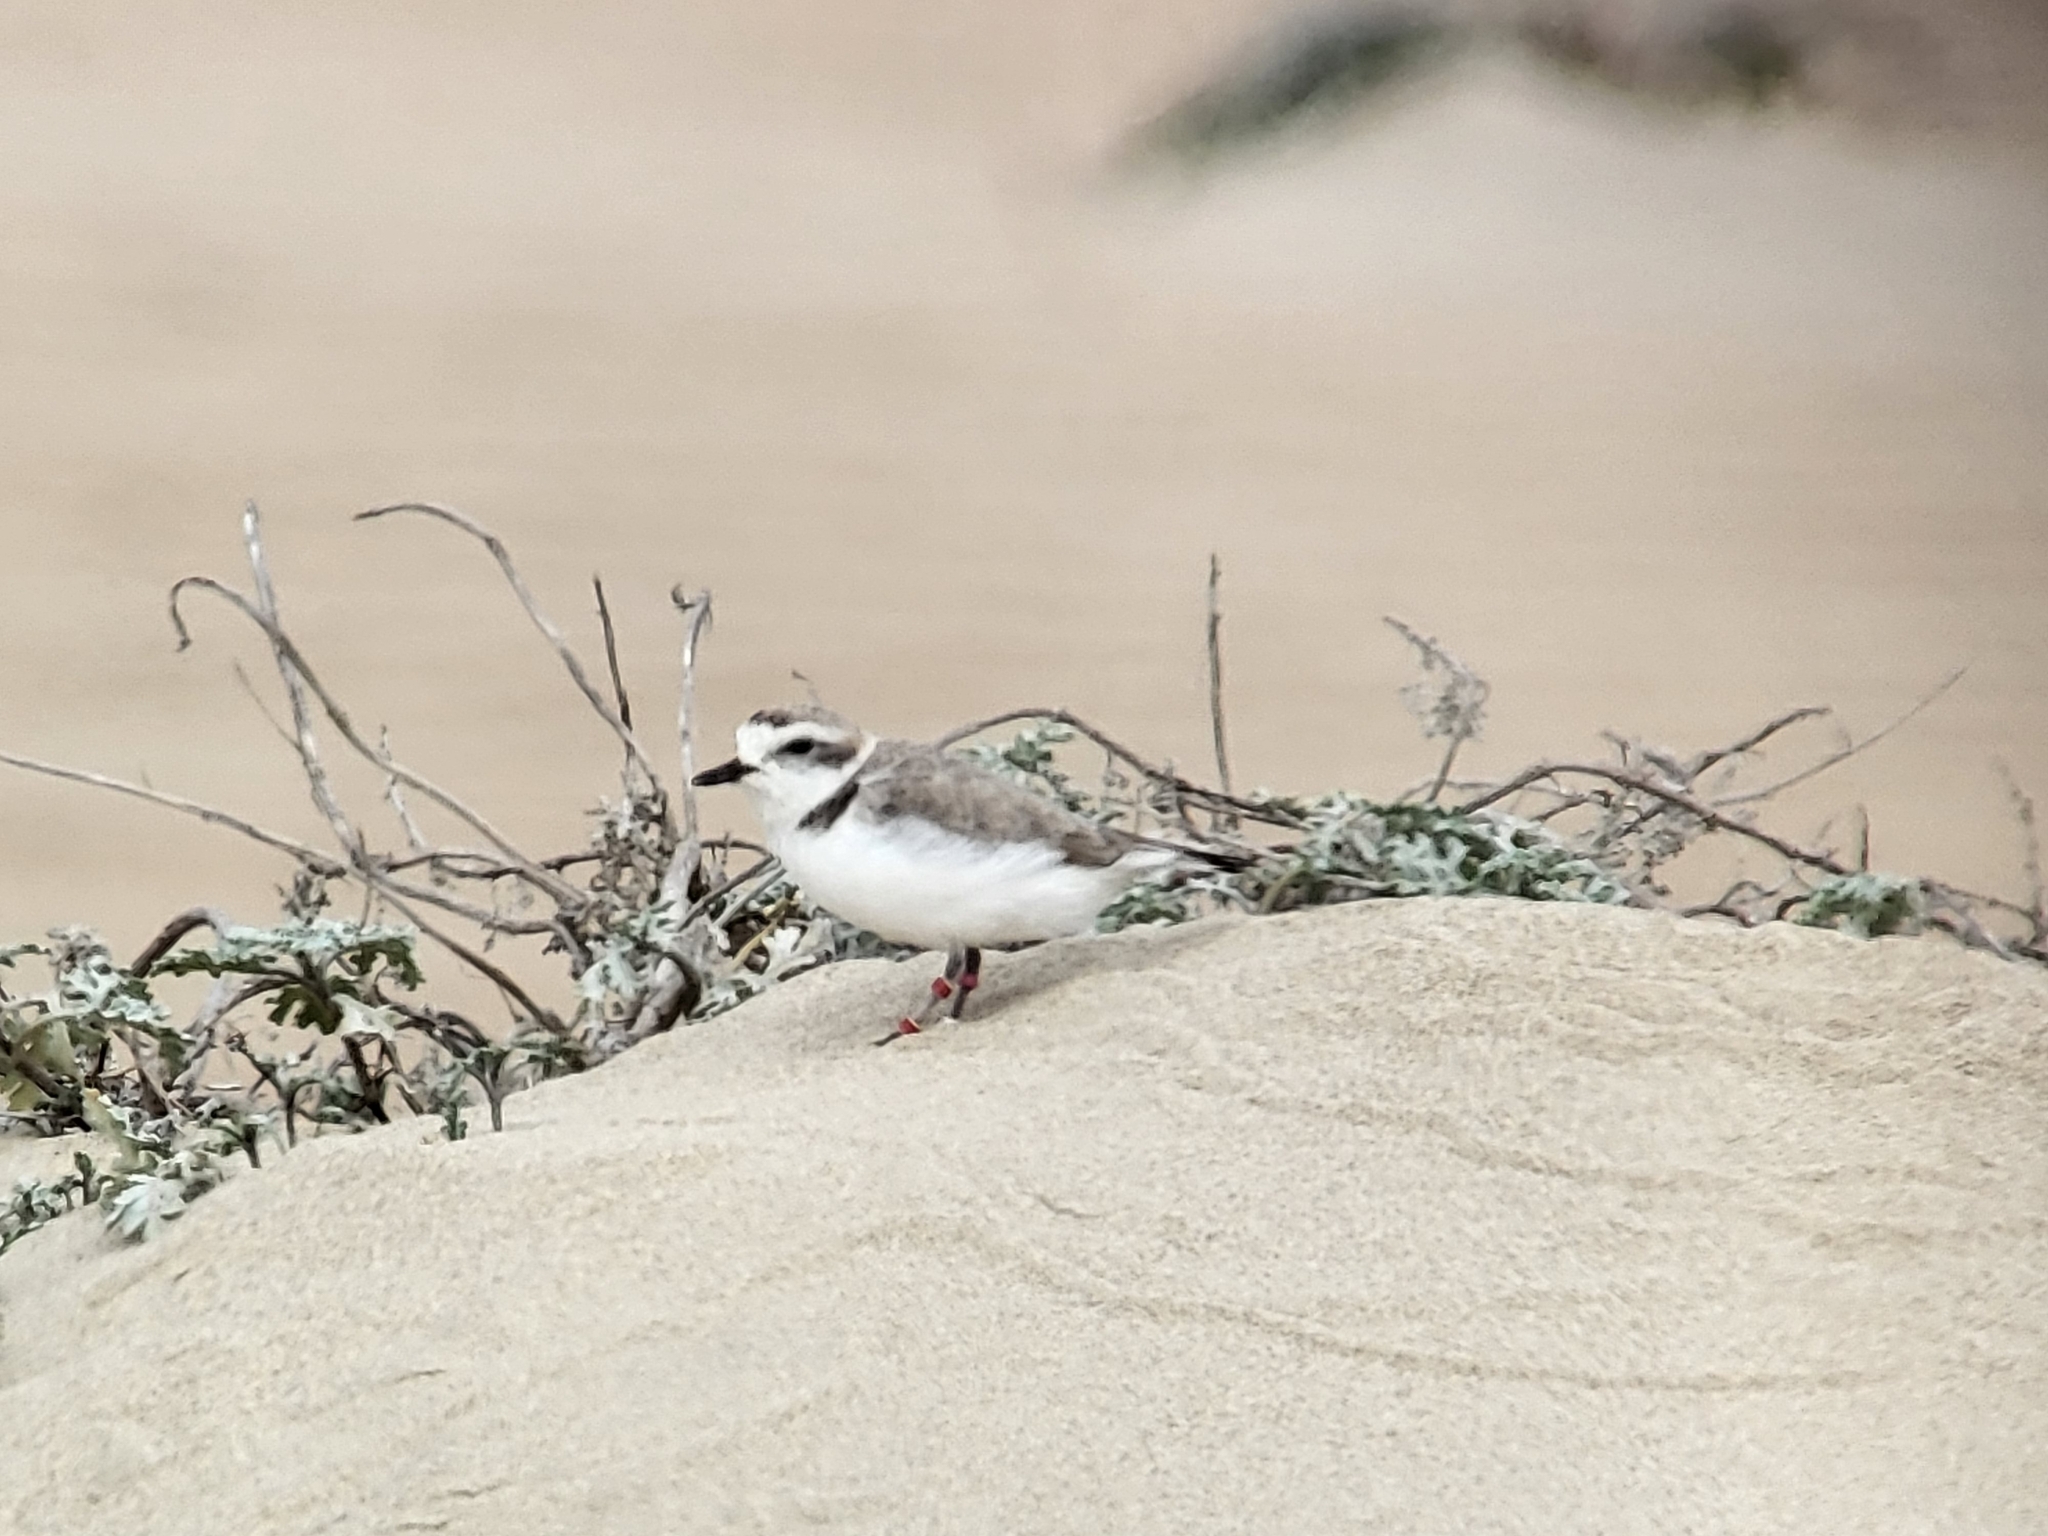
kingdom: Animalia
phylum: Chordata
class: Aves
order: Charadriiformes
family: Charadriidae
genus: Anarhynchus
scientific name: Anarhynchus
